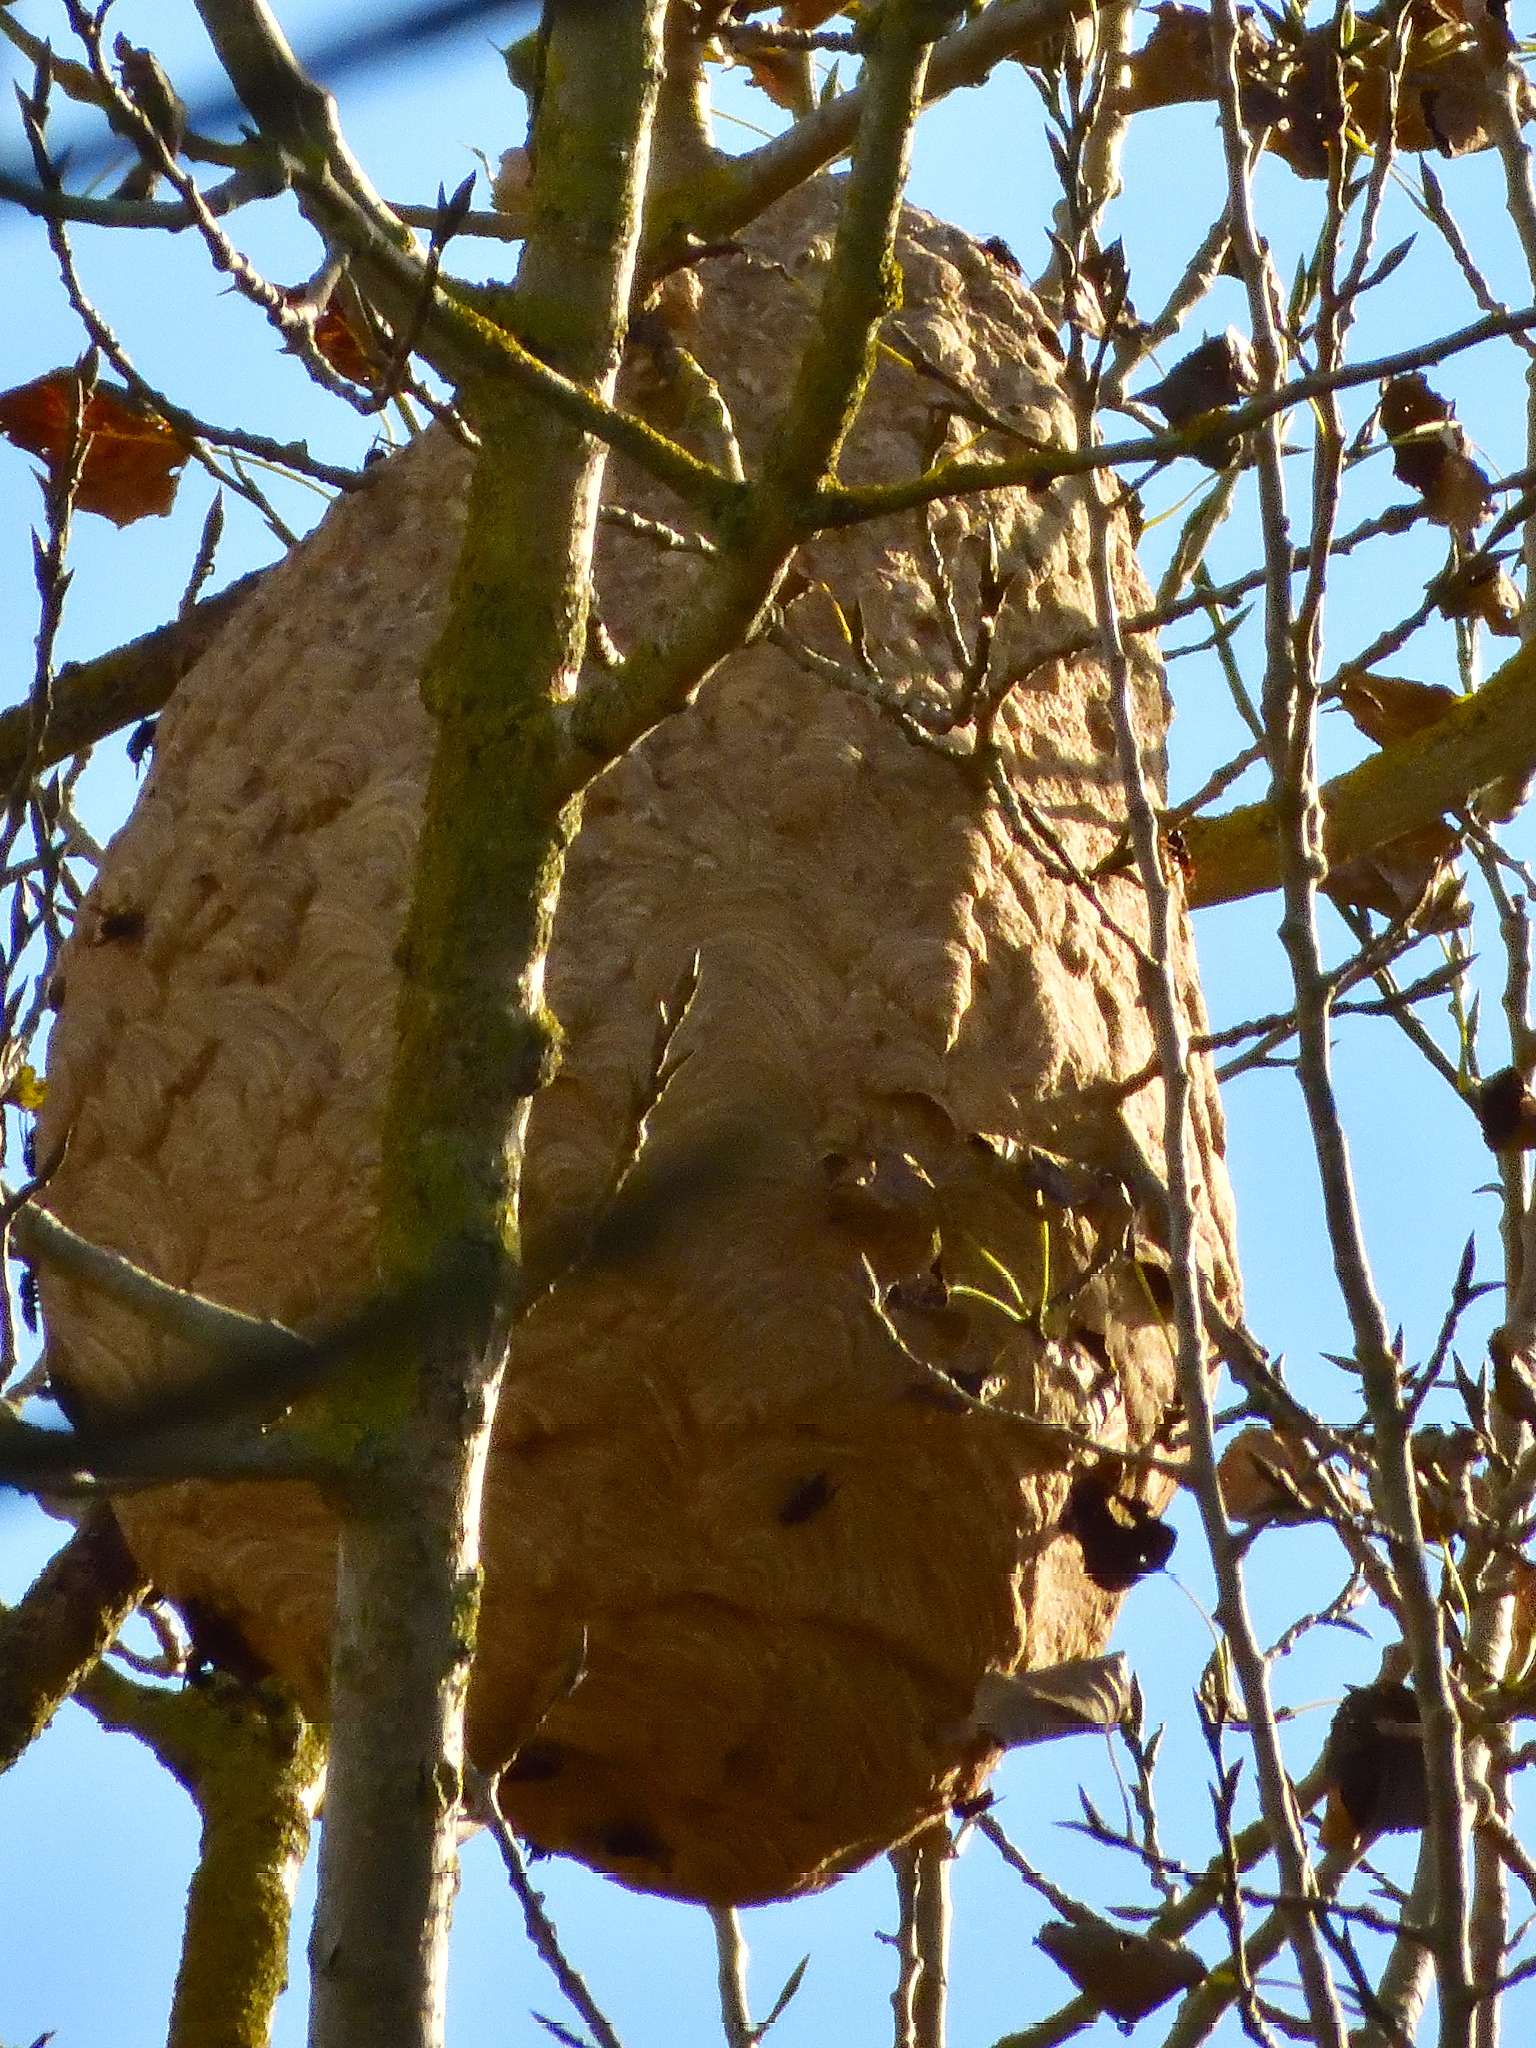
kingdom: Animalia
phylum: Arthropoda
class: Insecta
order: Hymenoptera
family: Vespidae
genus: Vespa
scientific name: Vespa velutina
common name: Asian hornet
